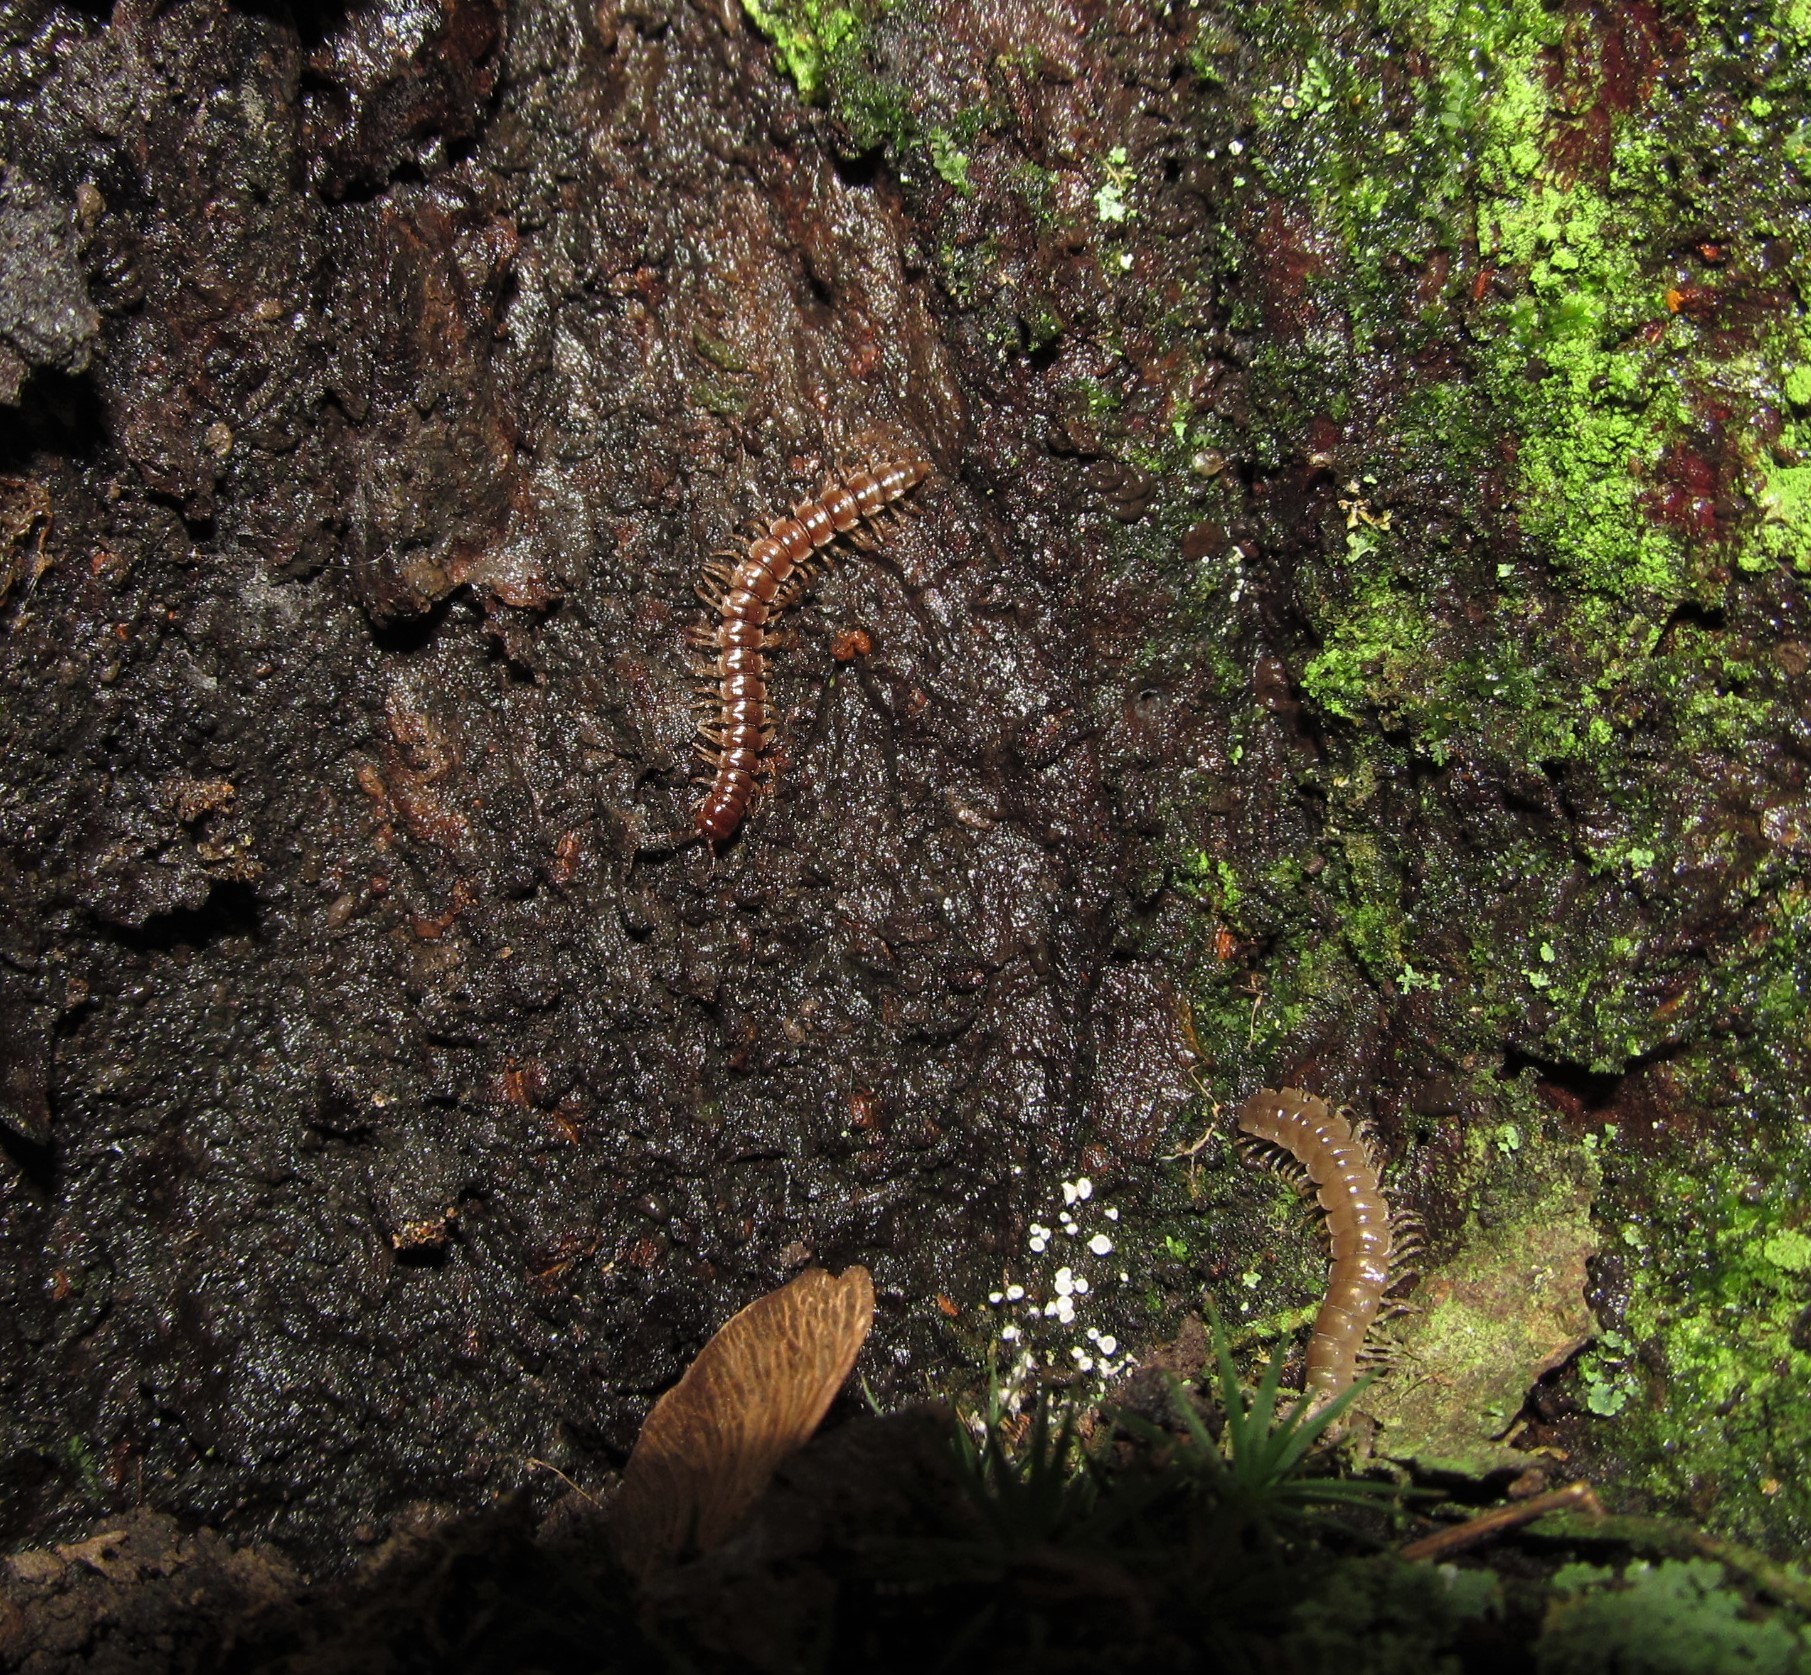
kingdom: Animalia
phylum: Arthropoda
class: Diplopoda
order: Polydesmida
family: Paradoxosomatidae
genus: Oxidus
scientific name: Oxidus gracilis
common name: Greenhouse millipede
